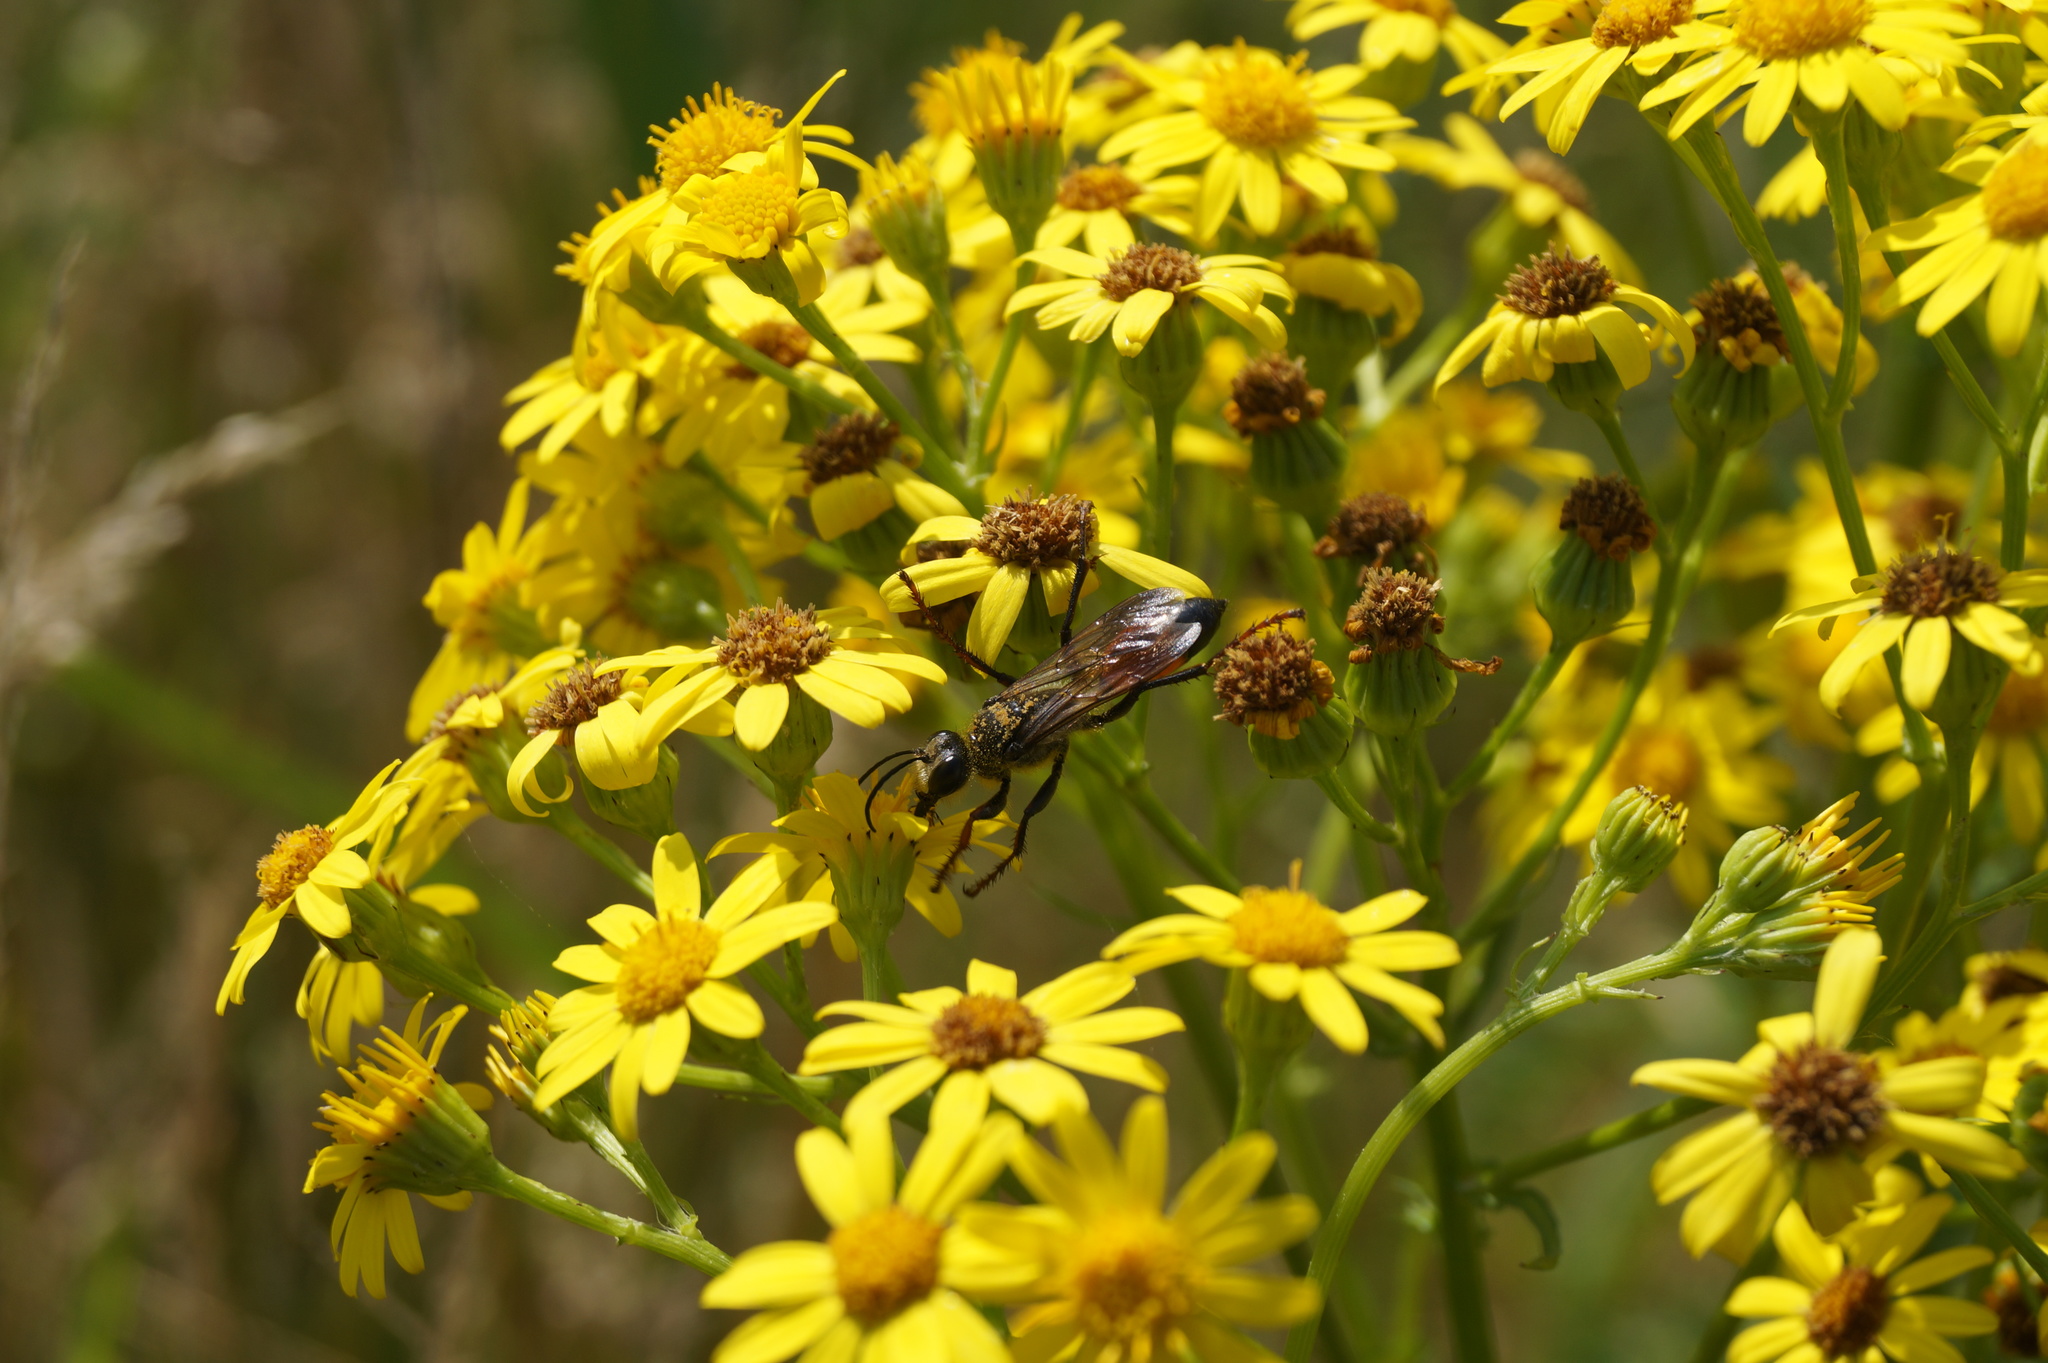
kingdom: Animalia
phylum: Arthropoda
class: Insecta
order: Hymenoptera
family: Sphecidae
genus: Sphex
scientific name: Sphex funerarius
